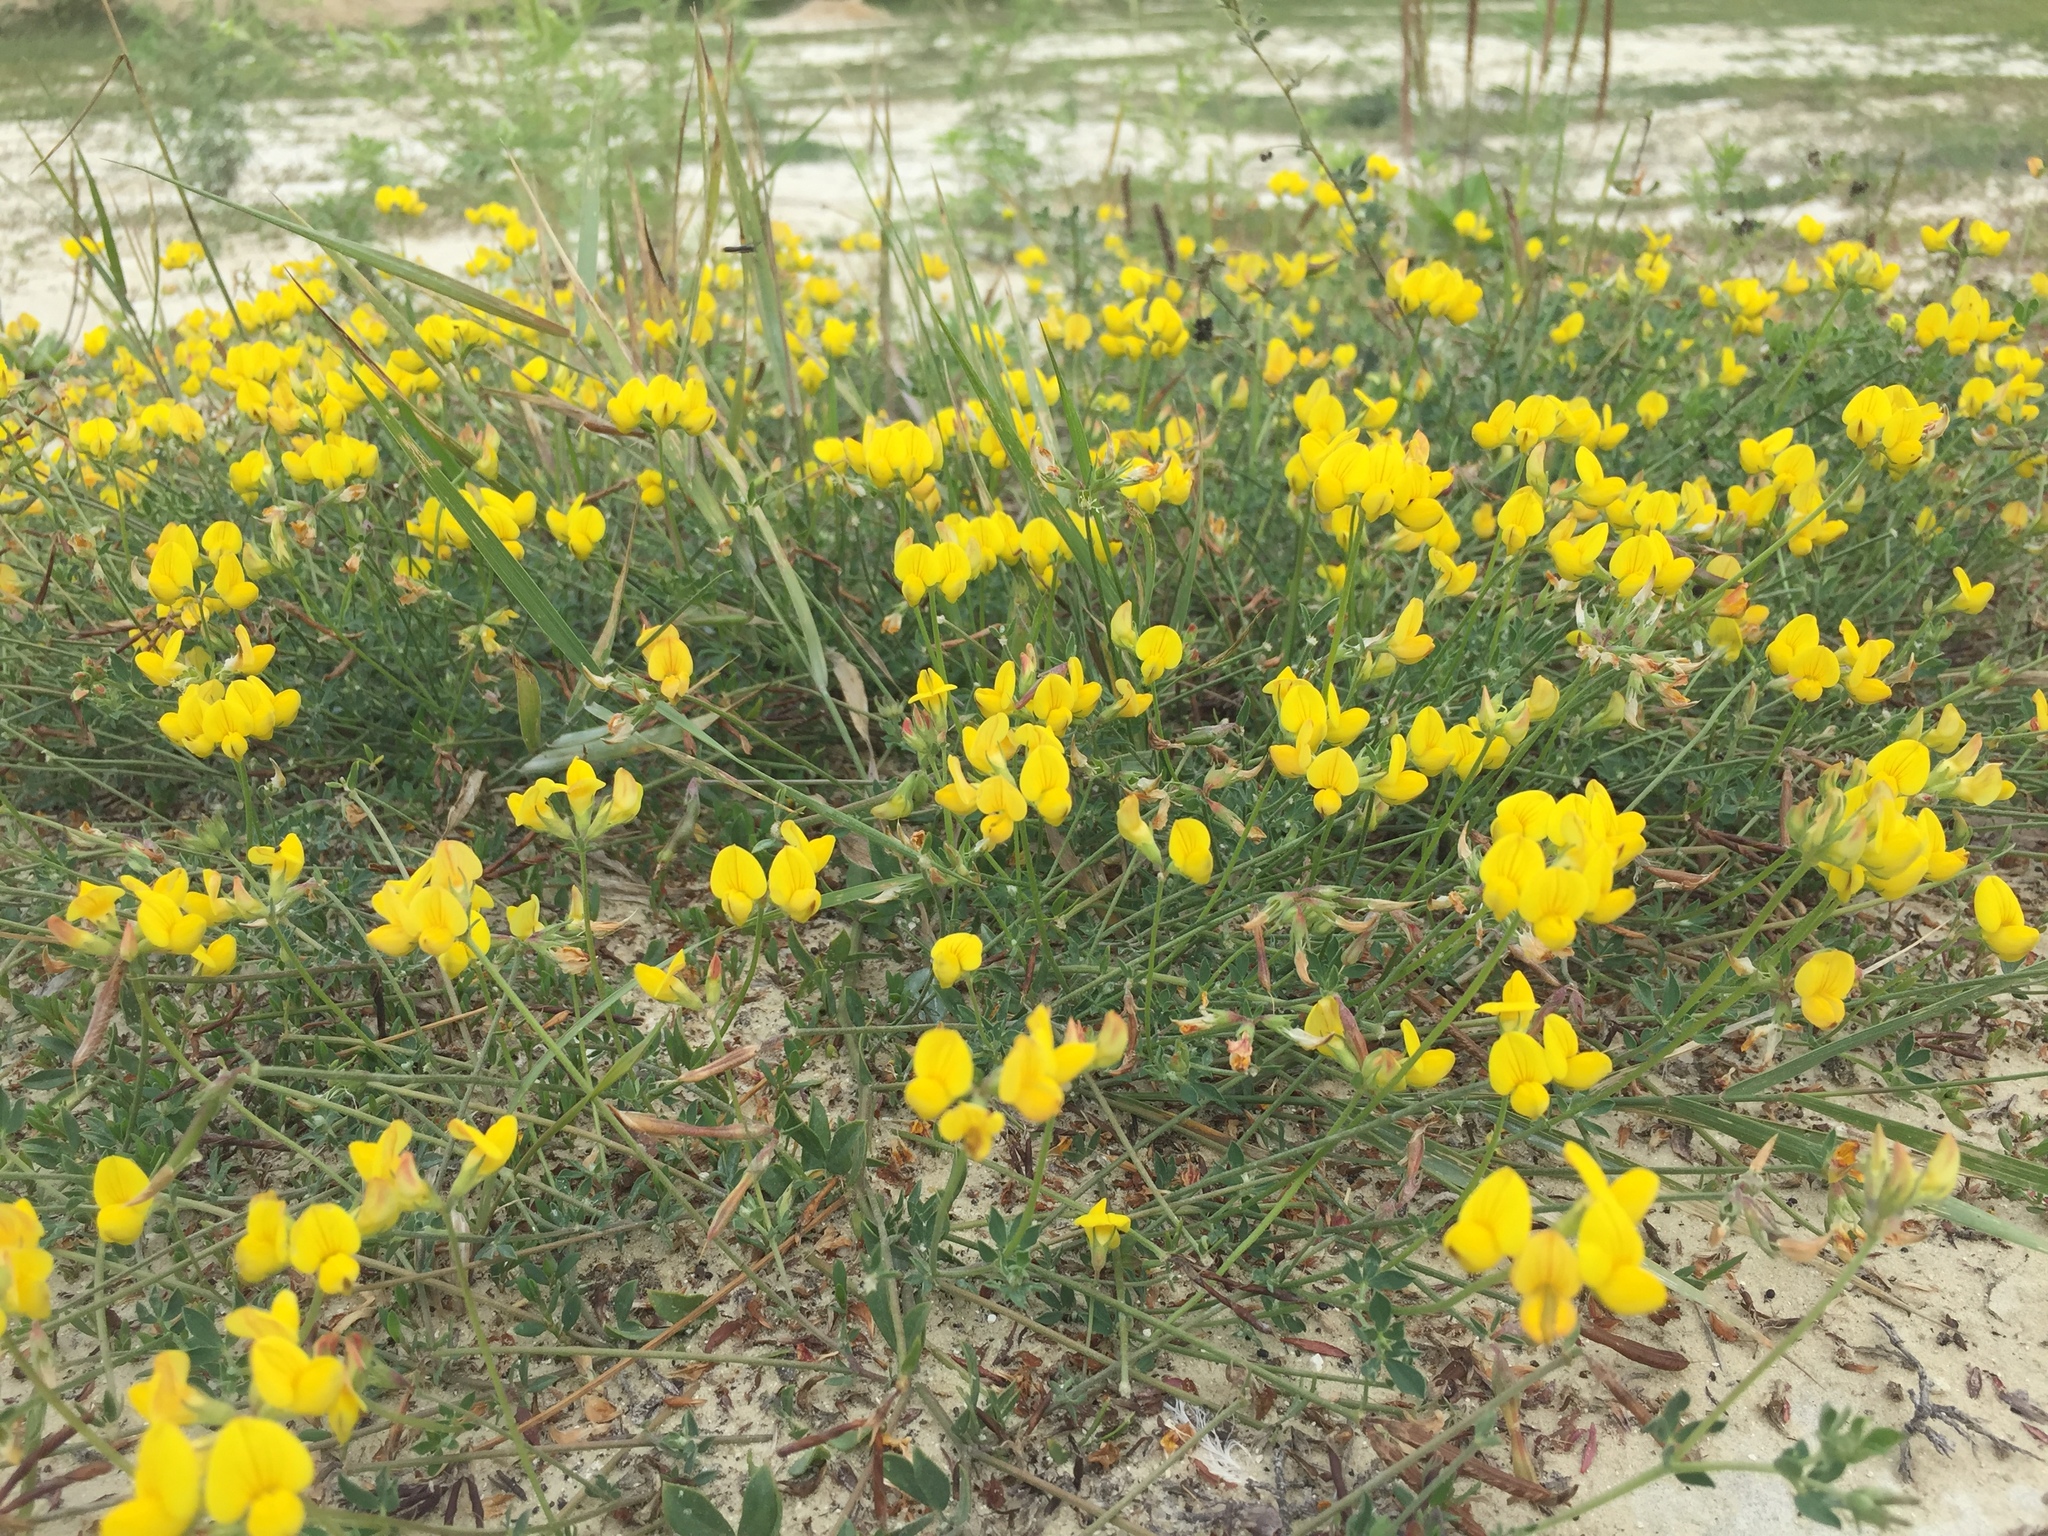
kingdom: Plantae
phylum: Tracheophyta
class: Magnoliopsida
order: Fabales
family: Fabaceae
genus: Lotus
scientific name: Lotus stepposus
